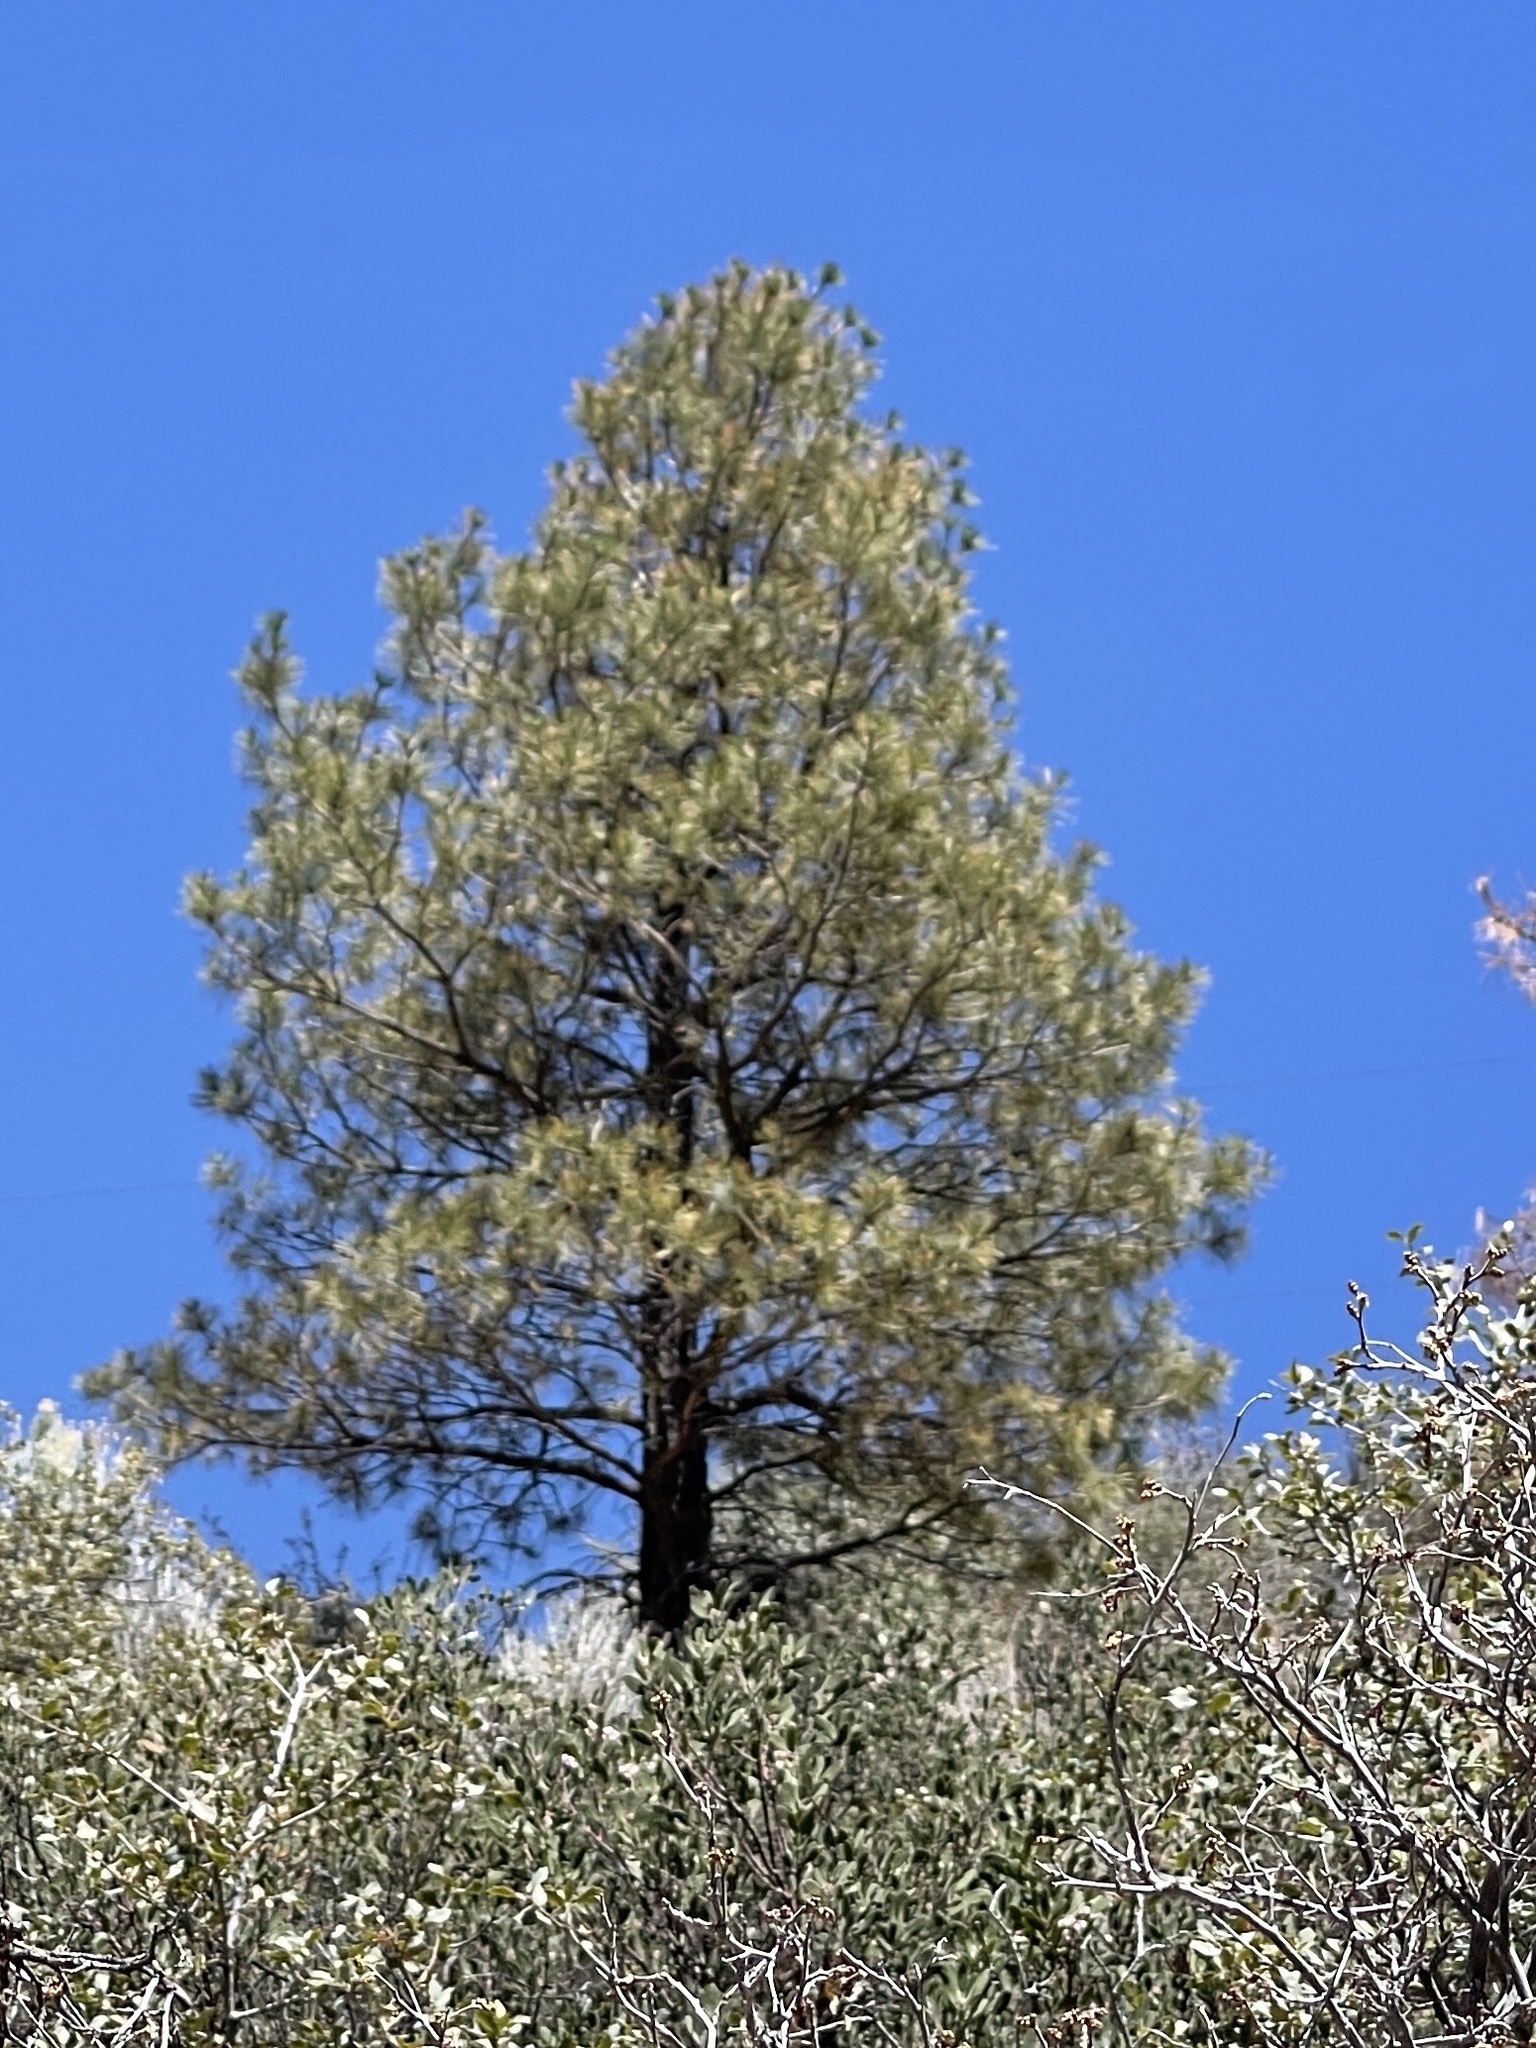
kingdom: Plantae
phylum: Tracheophyta
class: Pinopsida
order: Pinales
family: Pinaceae
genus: Pinus
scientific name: Pinus ponderosa
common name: Western yellow-pine
